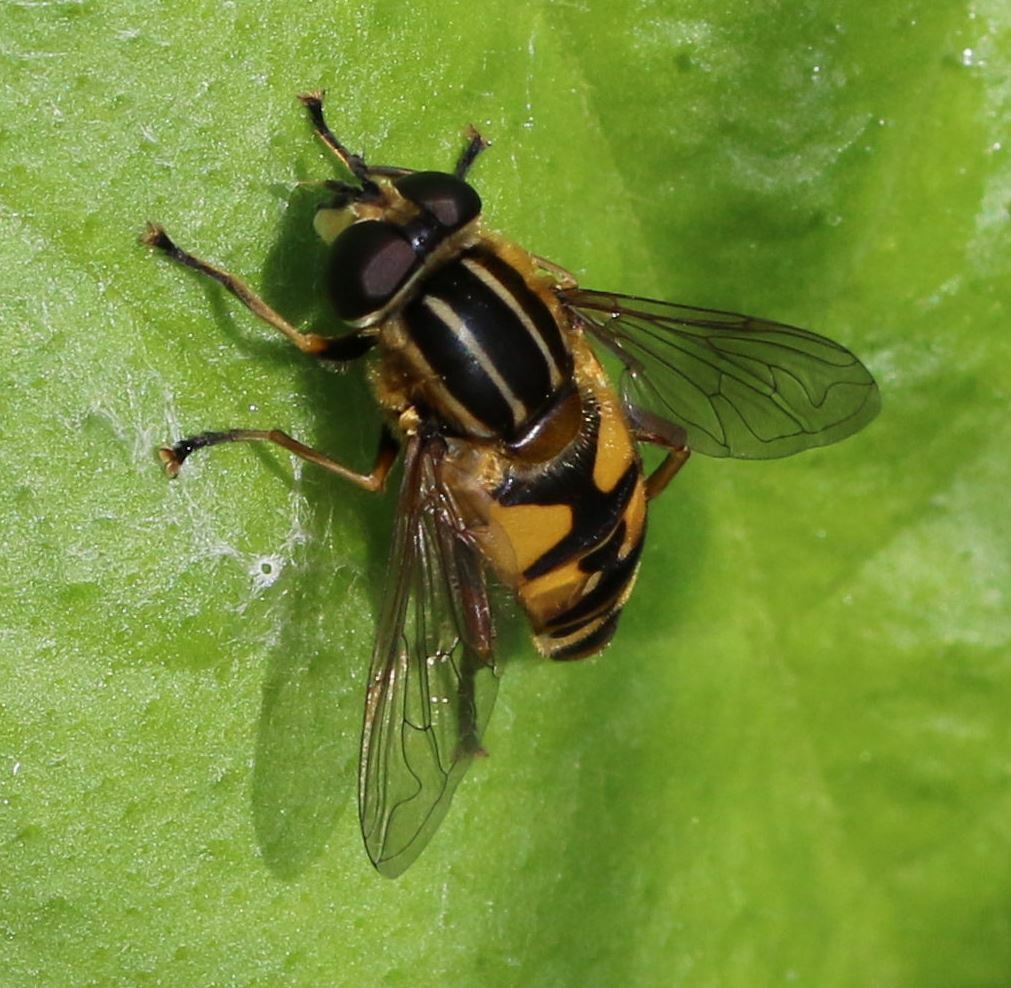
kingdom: Animalia
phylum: Arthropoda
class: Insecta
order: Diptera
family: Syrphidae
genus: Helophilus
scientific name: Helophilus pendulus
